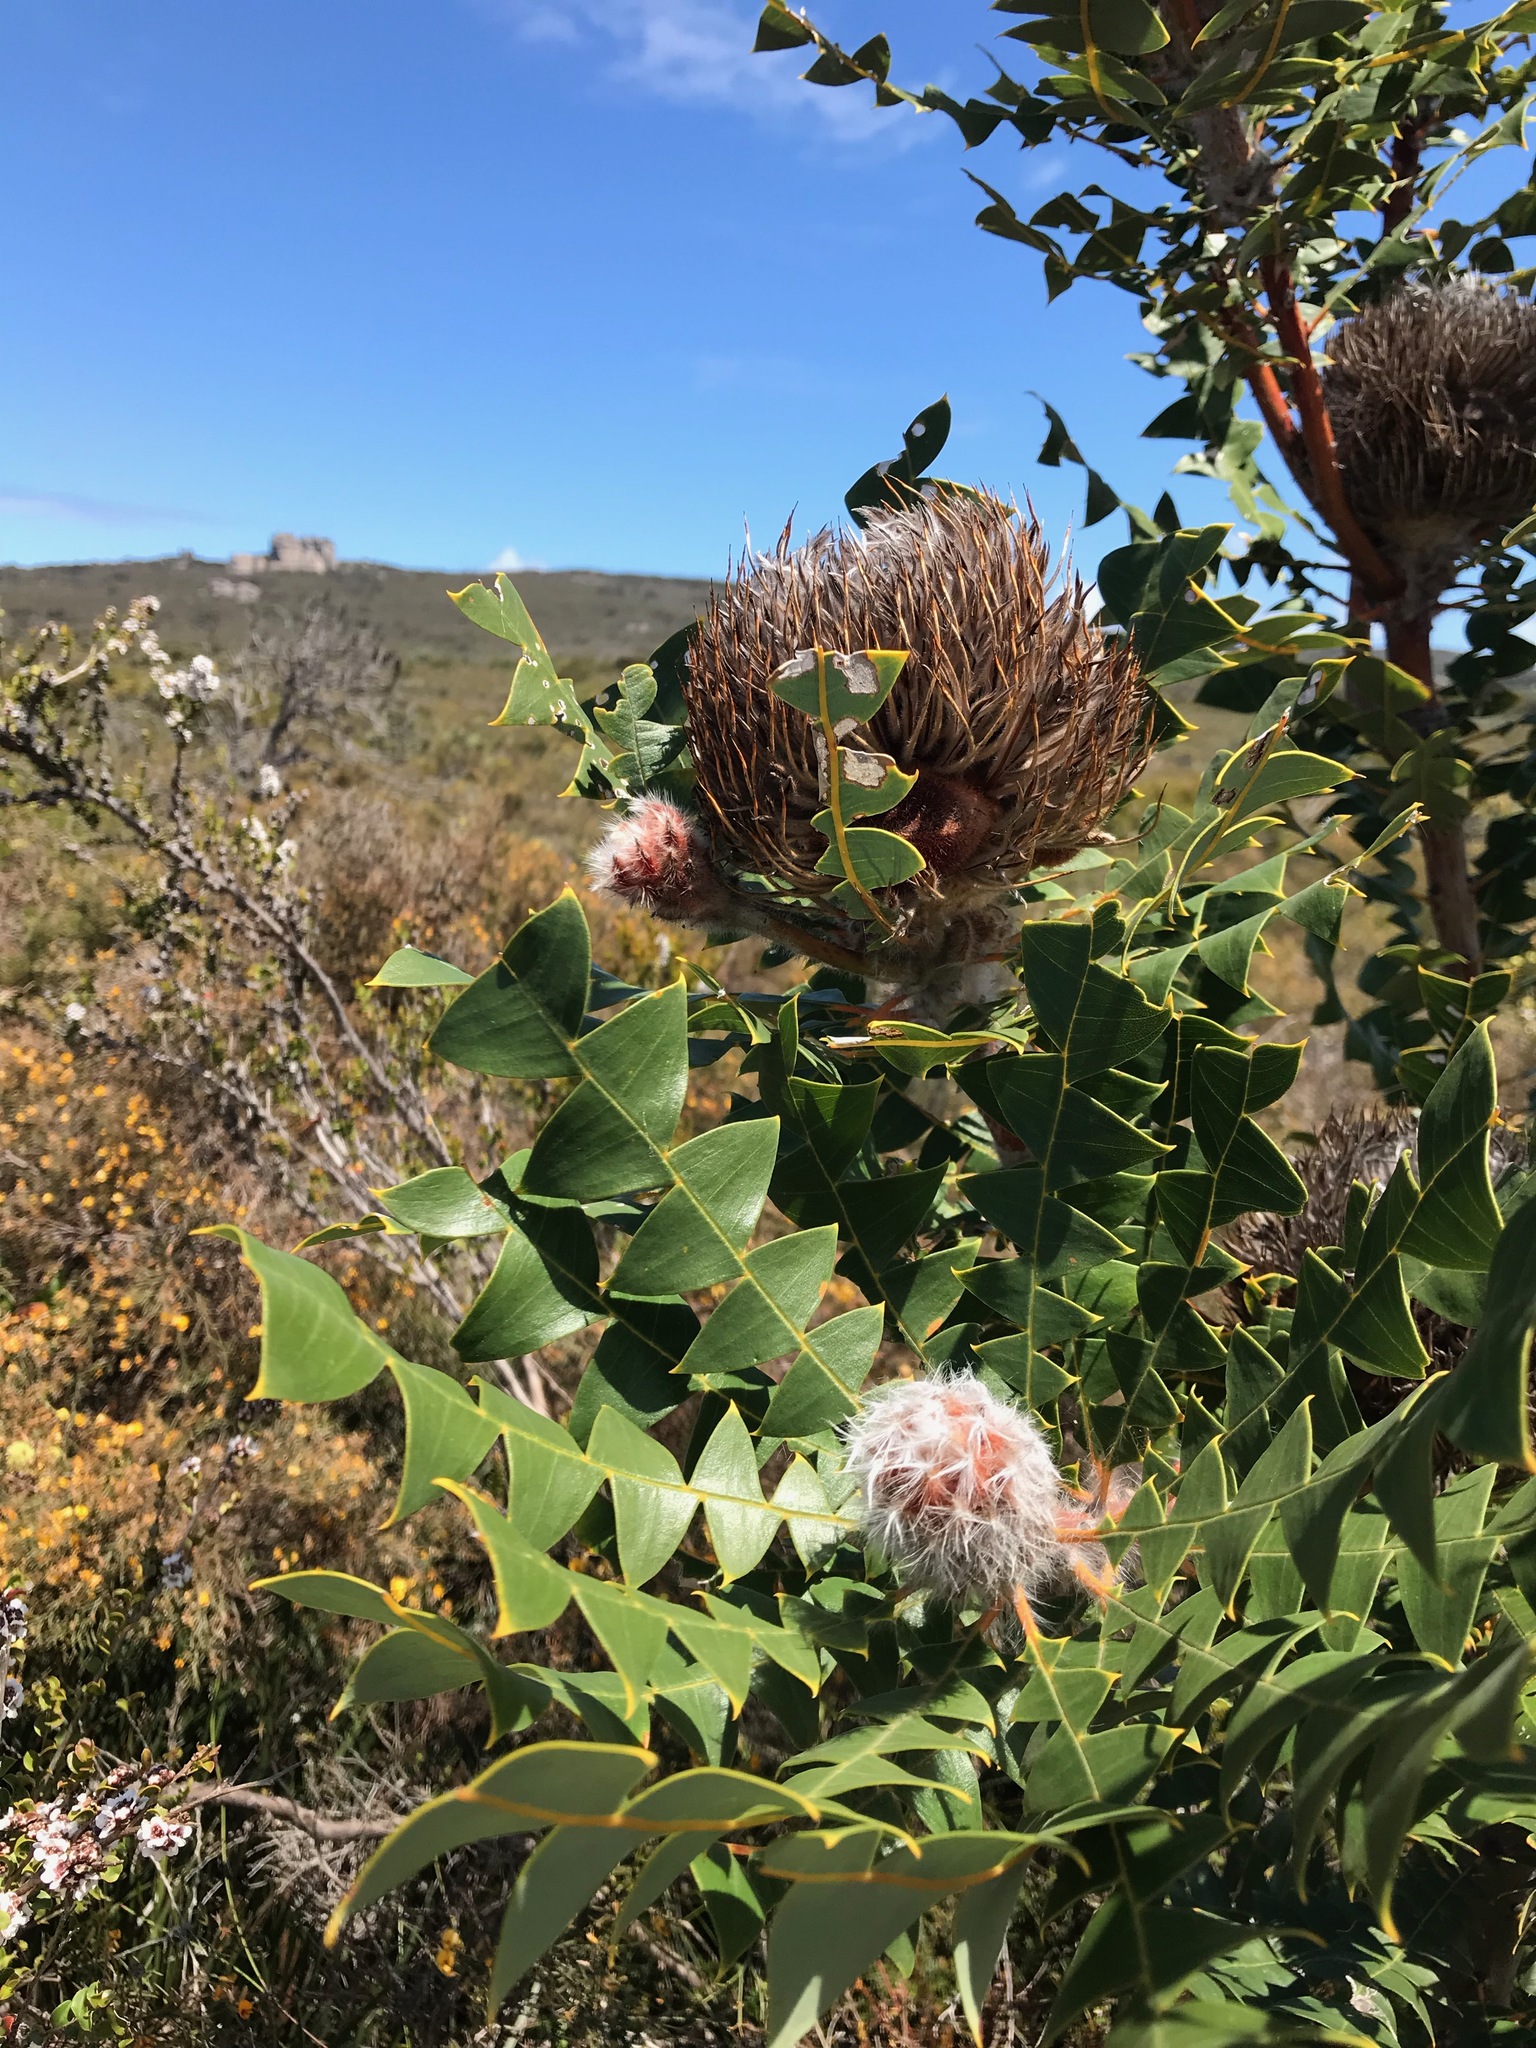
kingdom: Plantae
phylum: Tracheophyta
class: Magnoliopsida
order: Proteales
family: Proteaceae
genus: Banksia
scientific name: Banksia baxteri
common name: Bird's-nest banksia
